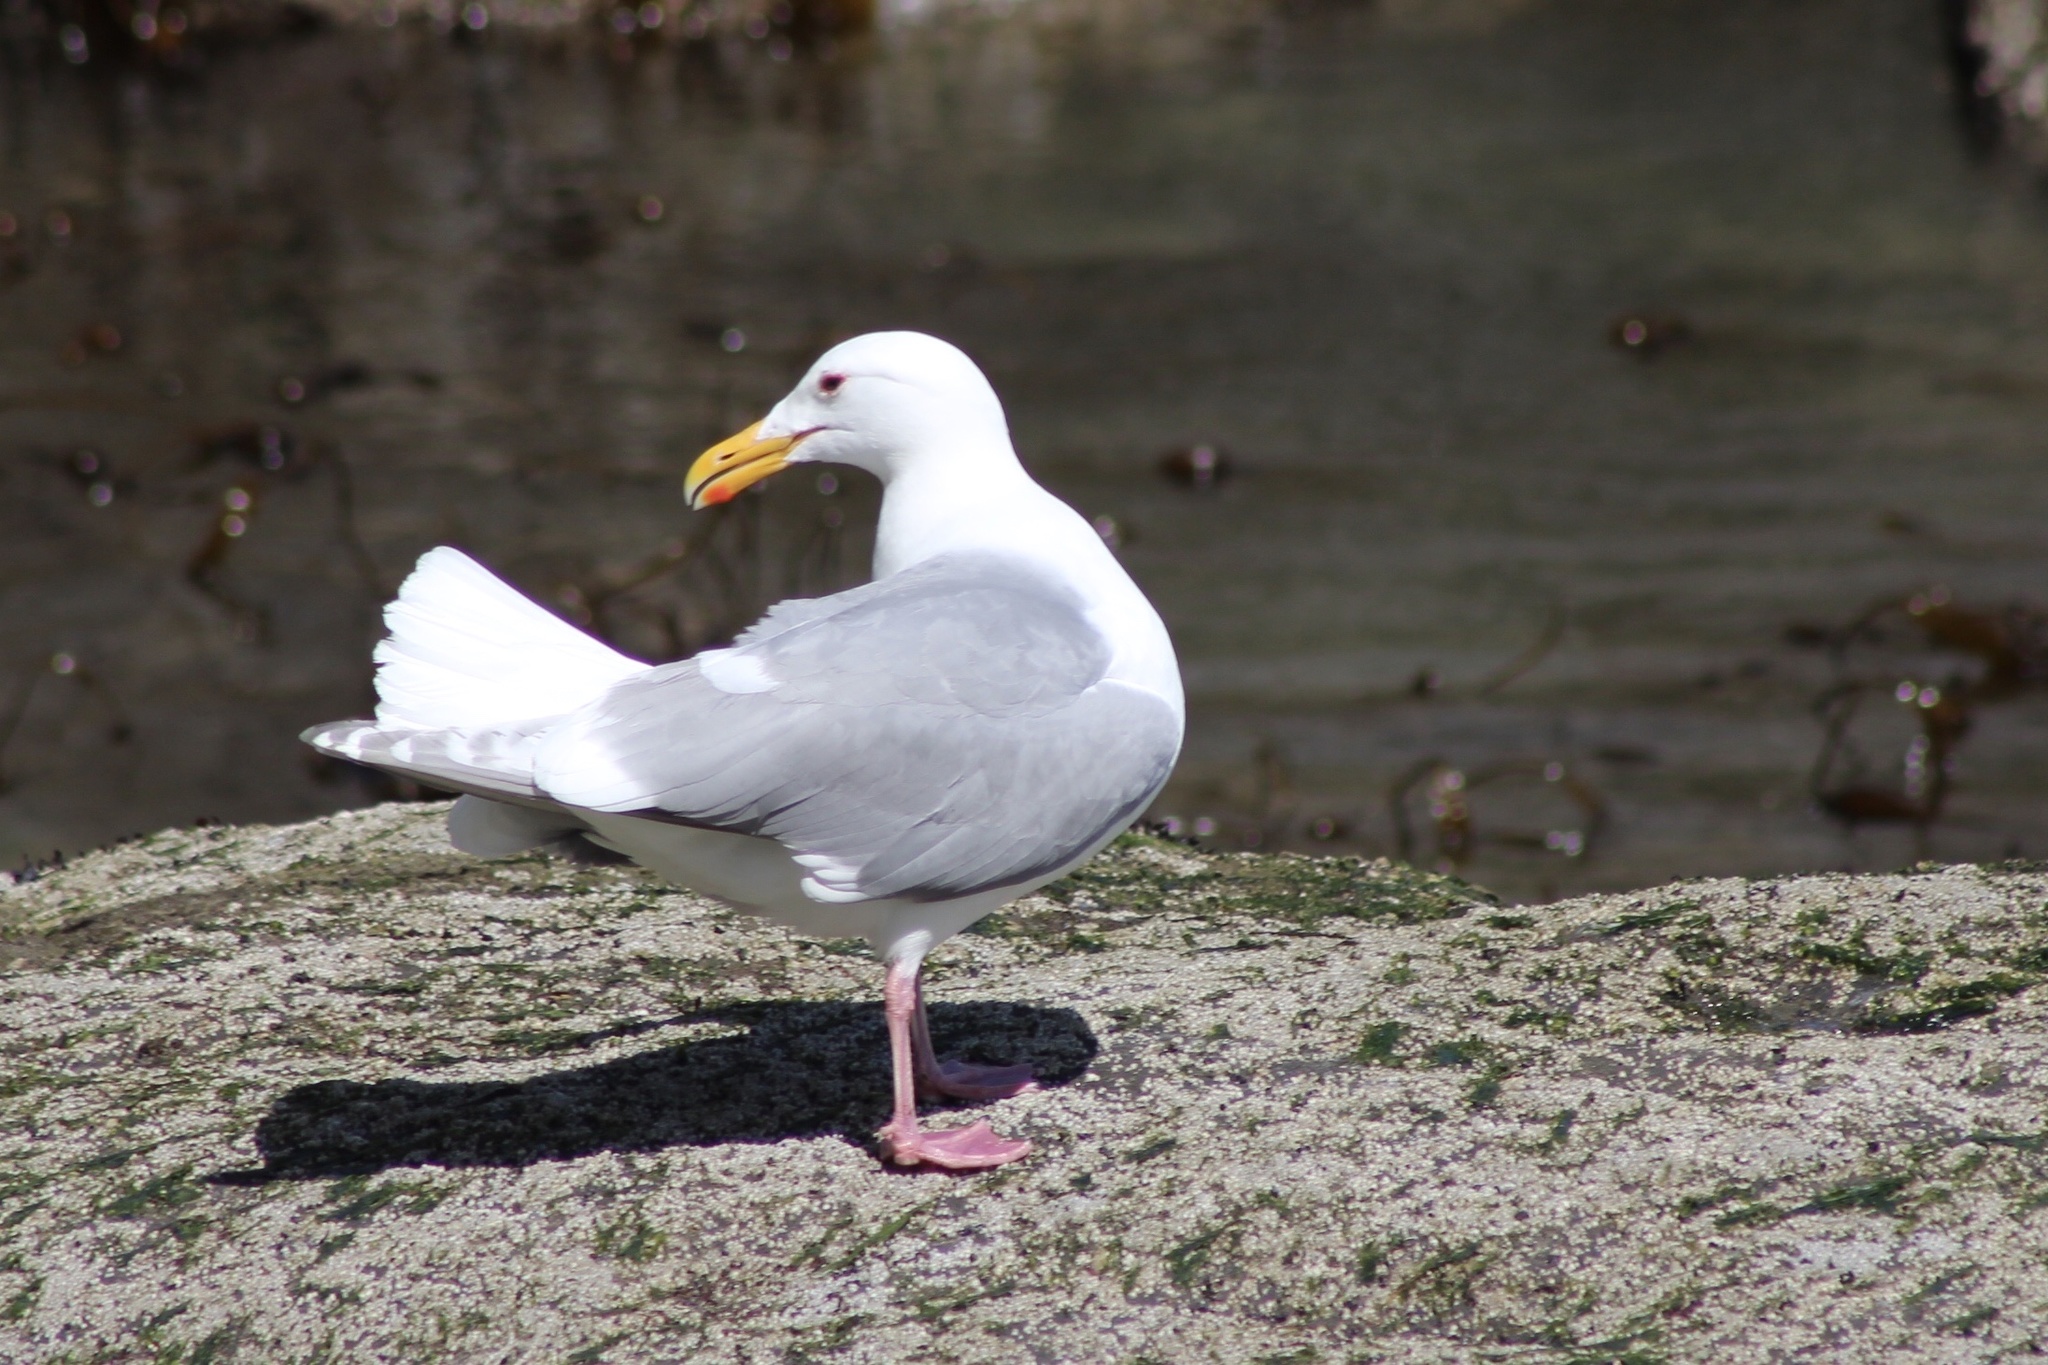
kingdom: Animalia
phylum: Chordata
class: Aves
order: Charadriiformes
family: Laridae
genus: Larus
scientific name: Larus glaucescens
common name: Glaucous-winged gull
